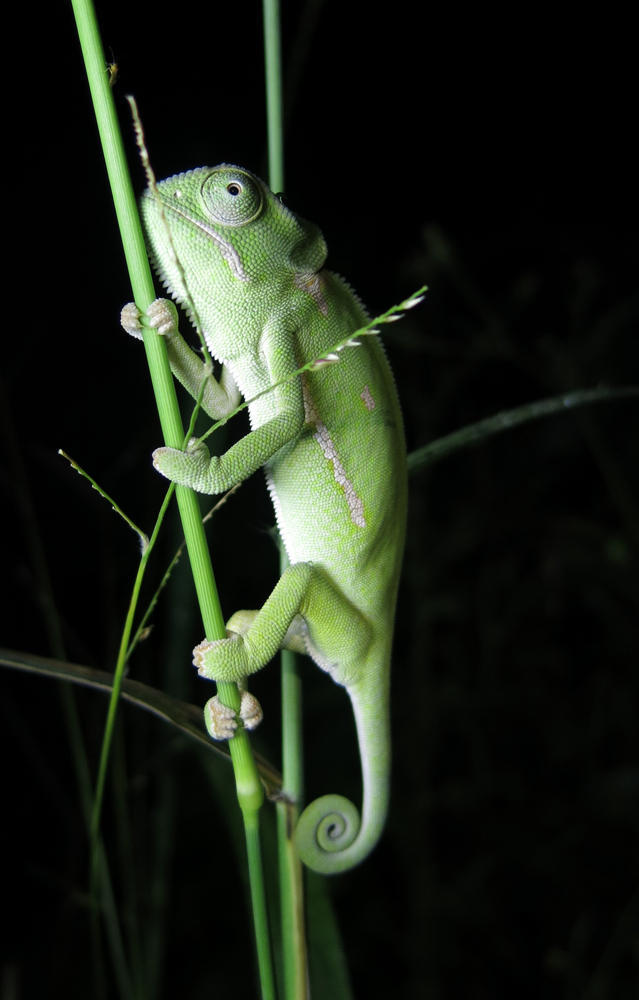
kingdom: Animalia
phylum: Chordata
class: Squamata
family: Chamaeleonidae
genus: Chamaeleo
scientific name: Chamaeleo dilepis
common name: Flapneck chameleon
